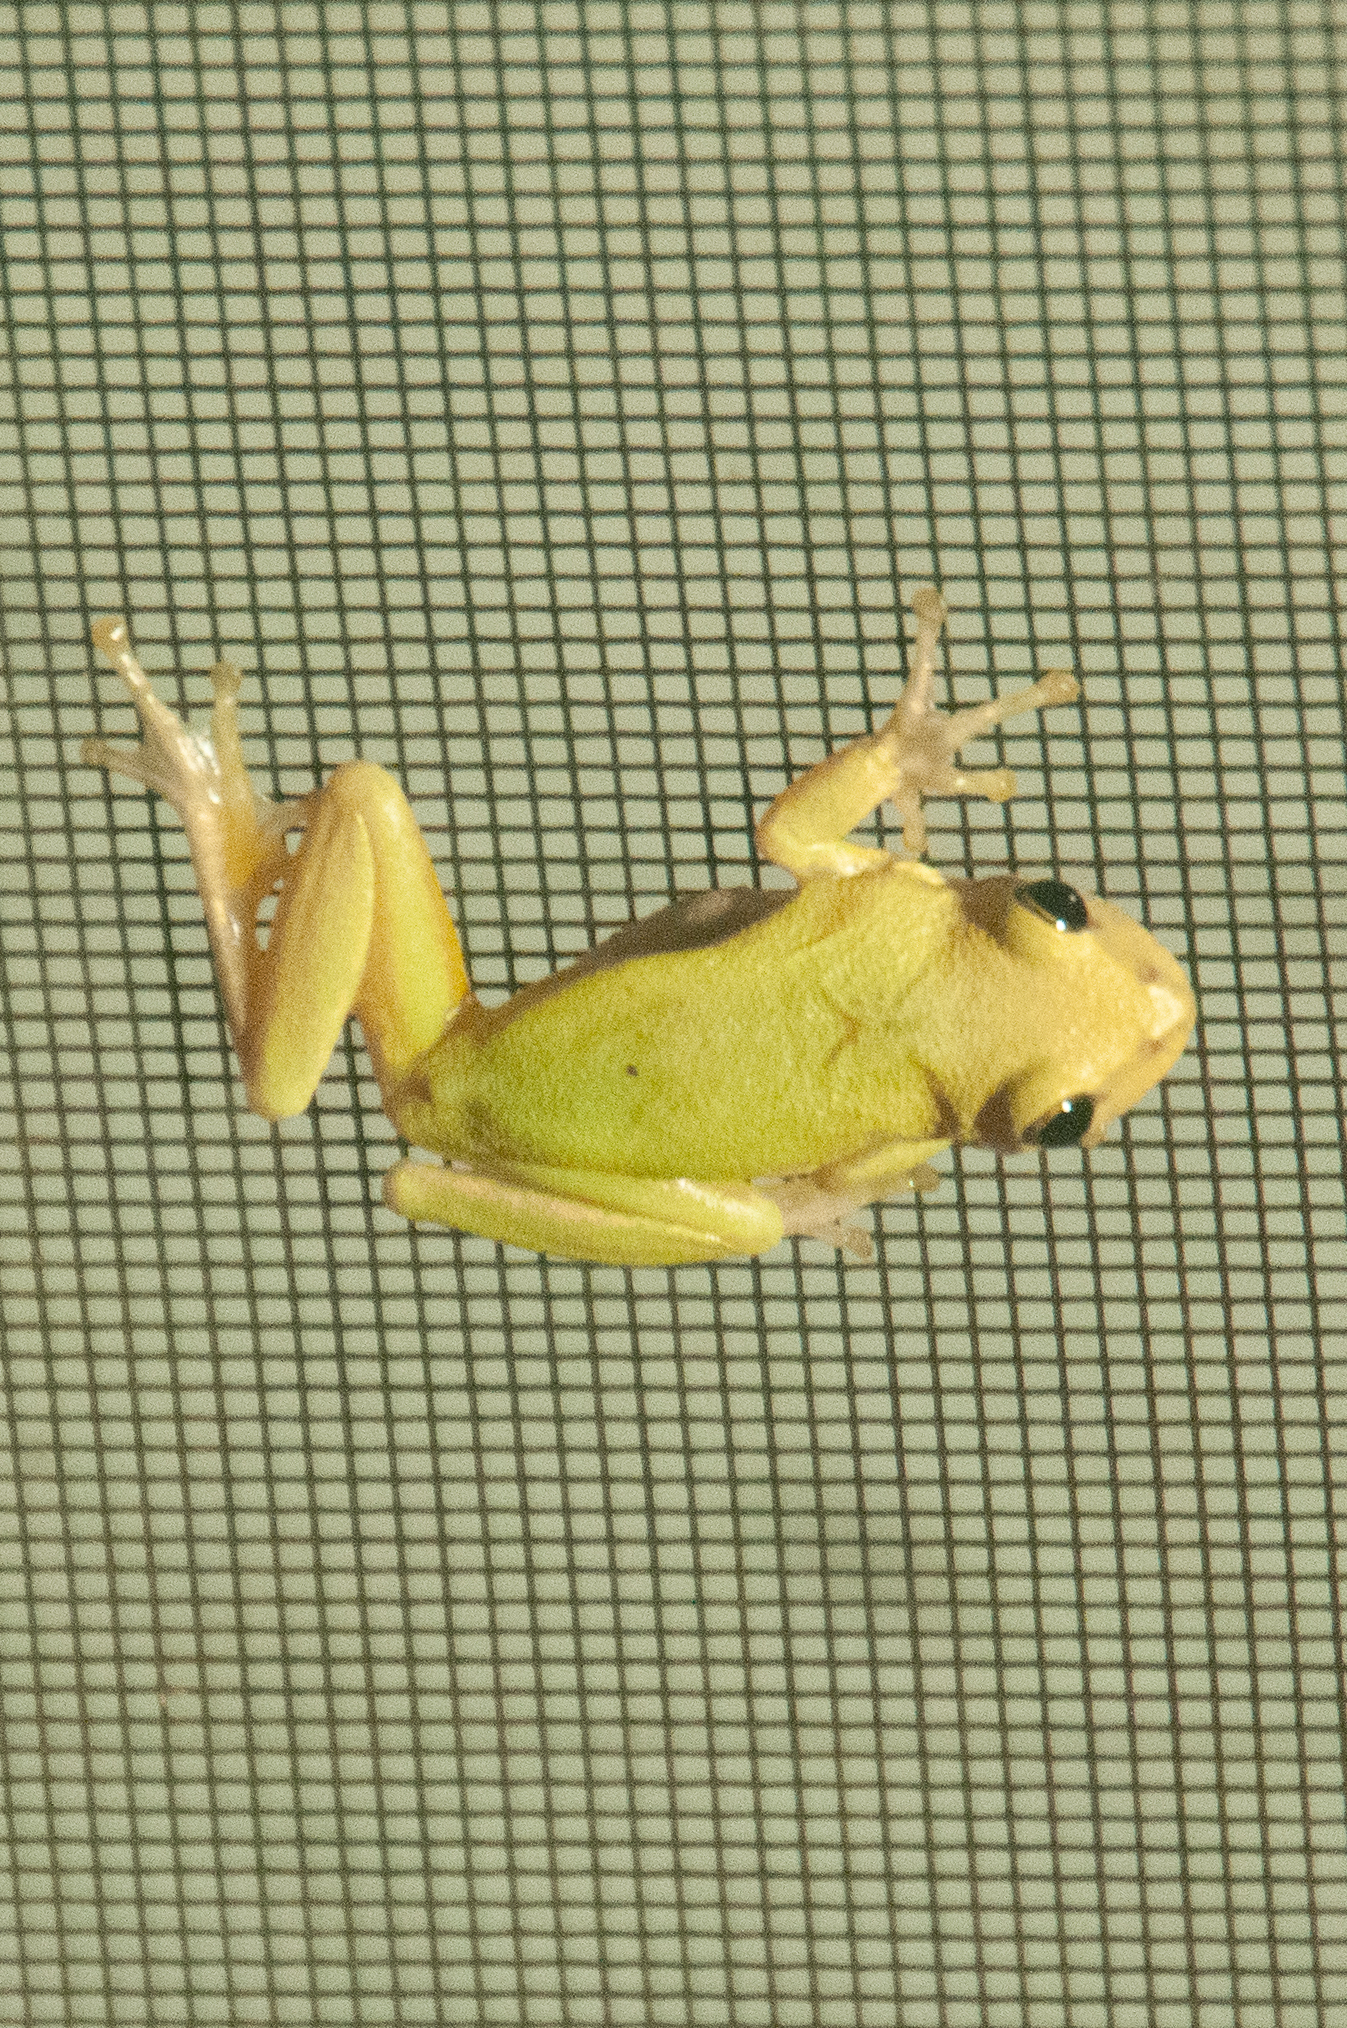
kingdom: Animalia
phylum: Chordata
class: Amphibia
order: Anura
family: Hylidae
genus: Dryophytes
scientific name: Dryophytes squirellus
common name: Squirrel treefrog
